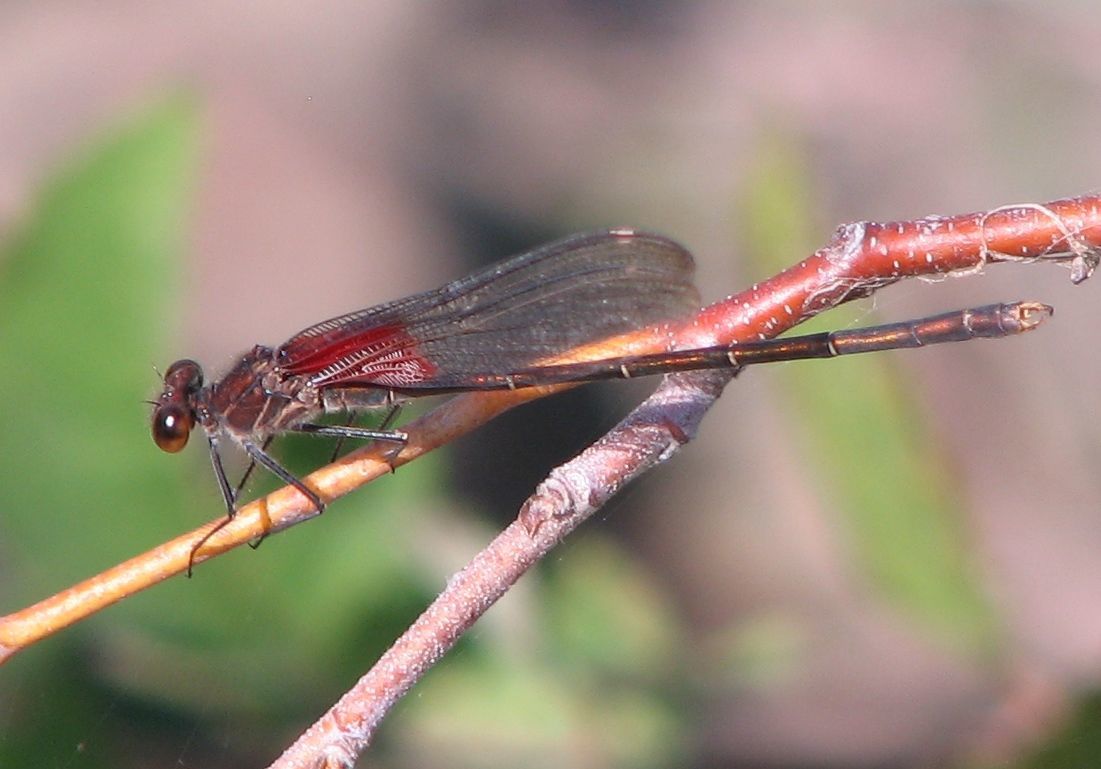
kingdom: Animalia
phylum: Arthropoda
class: Insecta
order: Odonata
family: Calopterygidae
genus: Hetaerina
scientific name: Hetaerina americana
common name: American rubyspot
